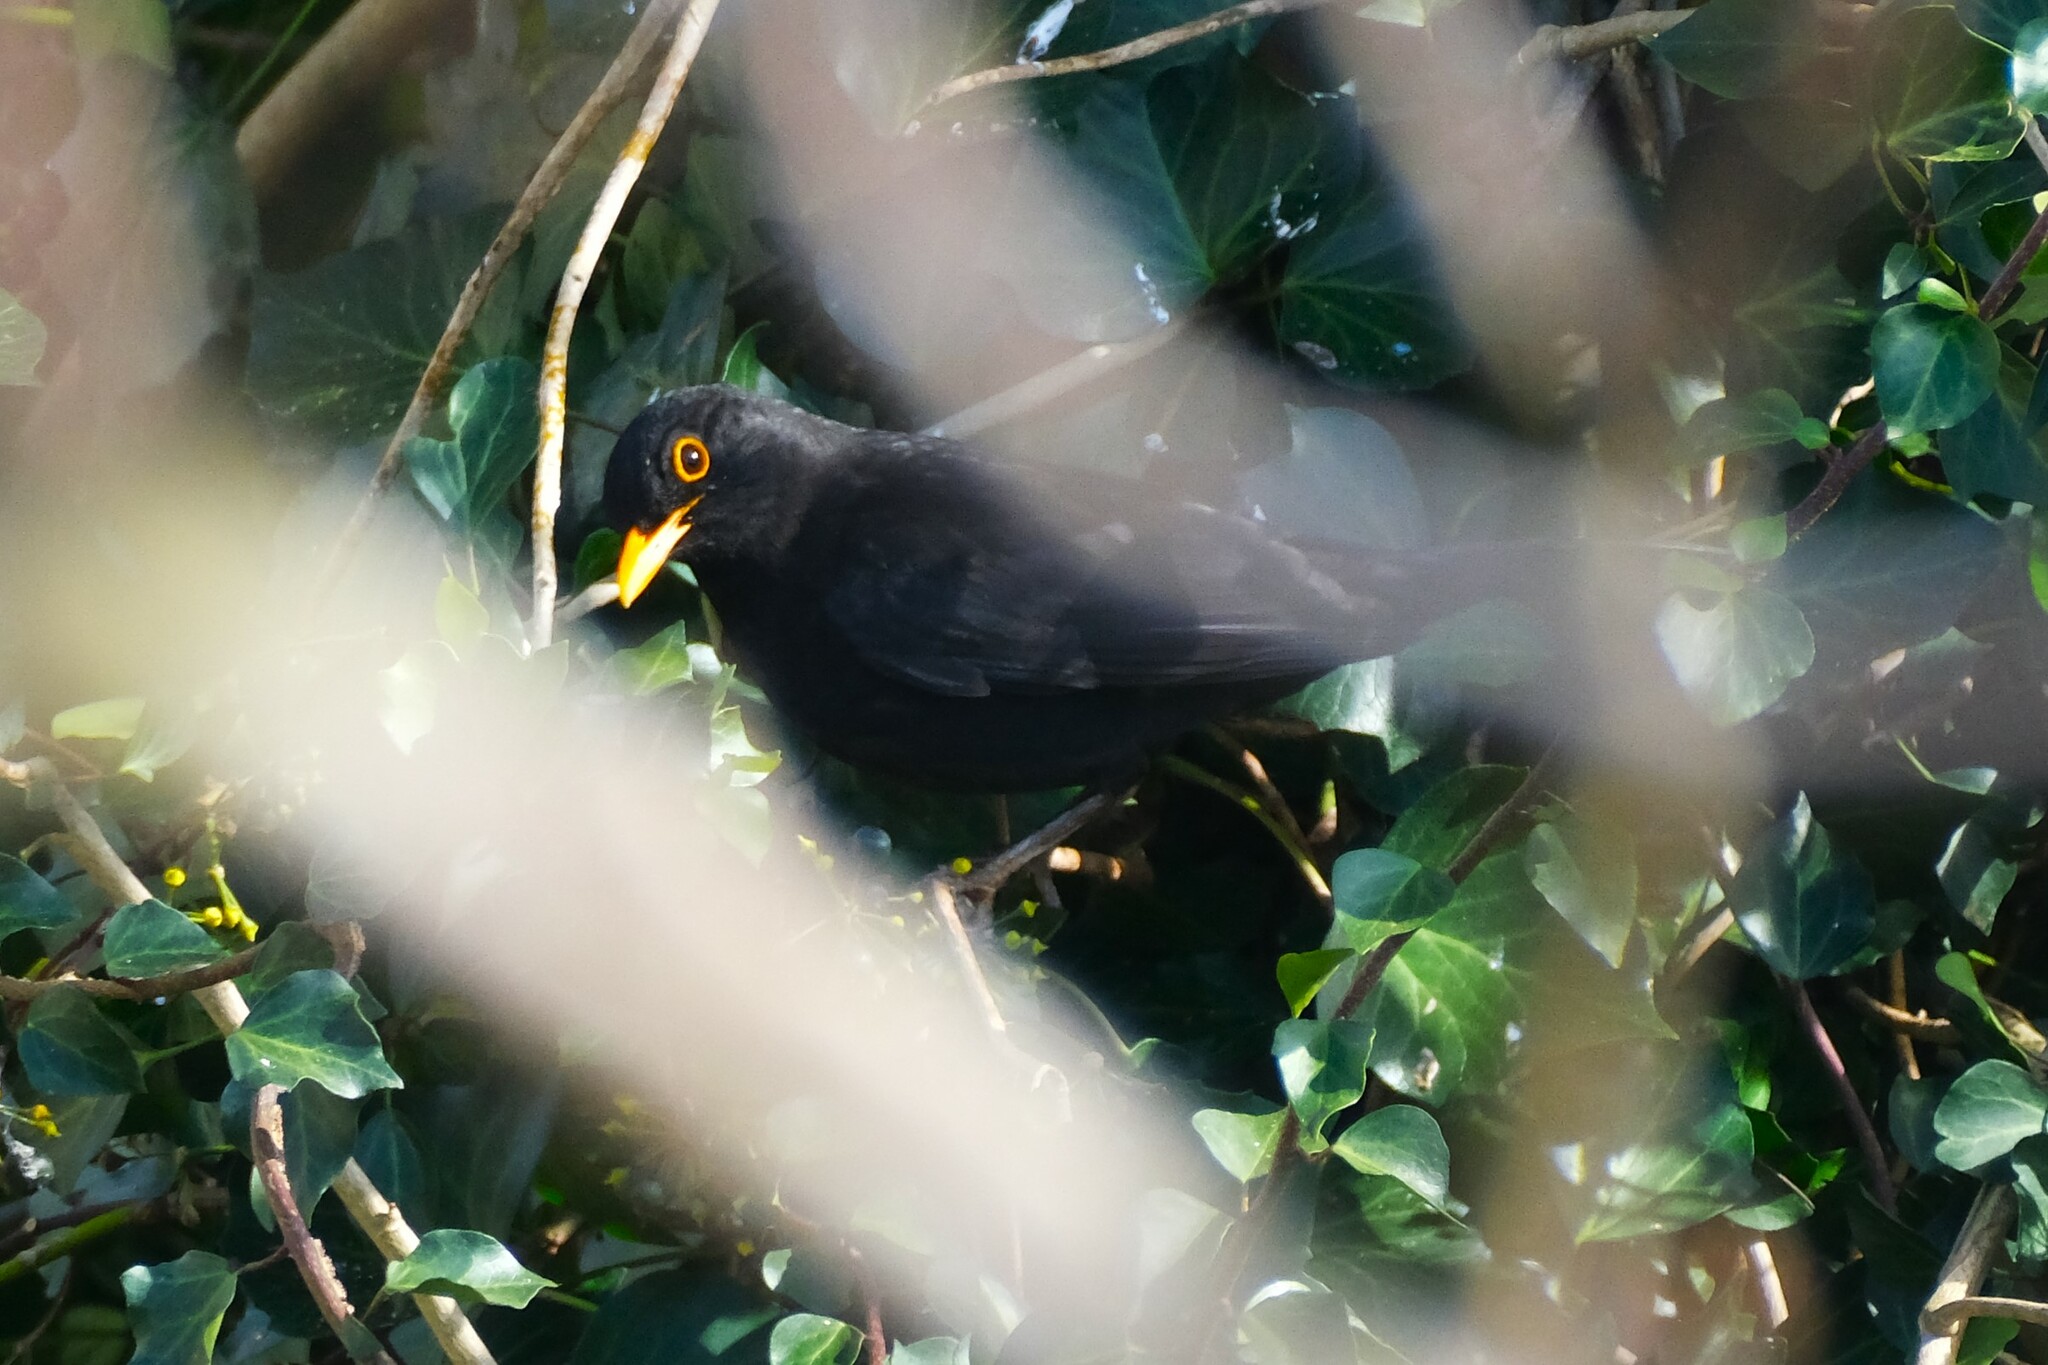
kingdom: Animalia
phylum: Chordata
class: Aves
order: Passeriformes
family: Turdidae
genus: Turdus
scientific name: Turdus merula
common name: Common blackbird
